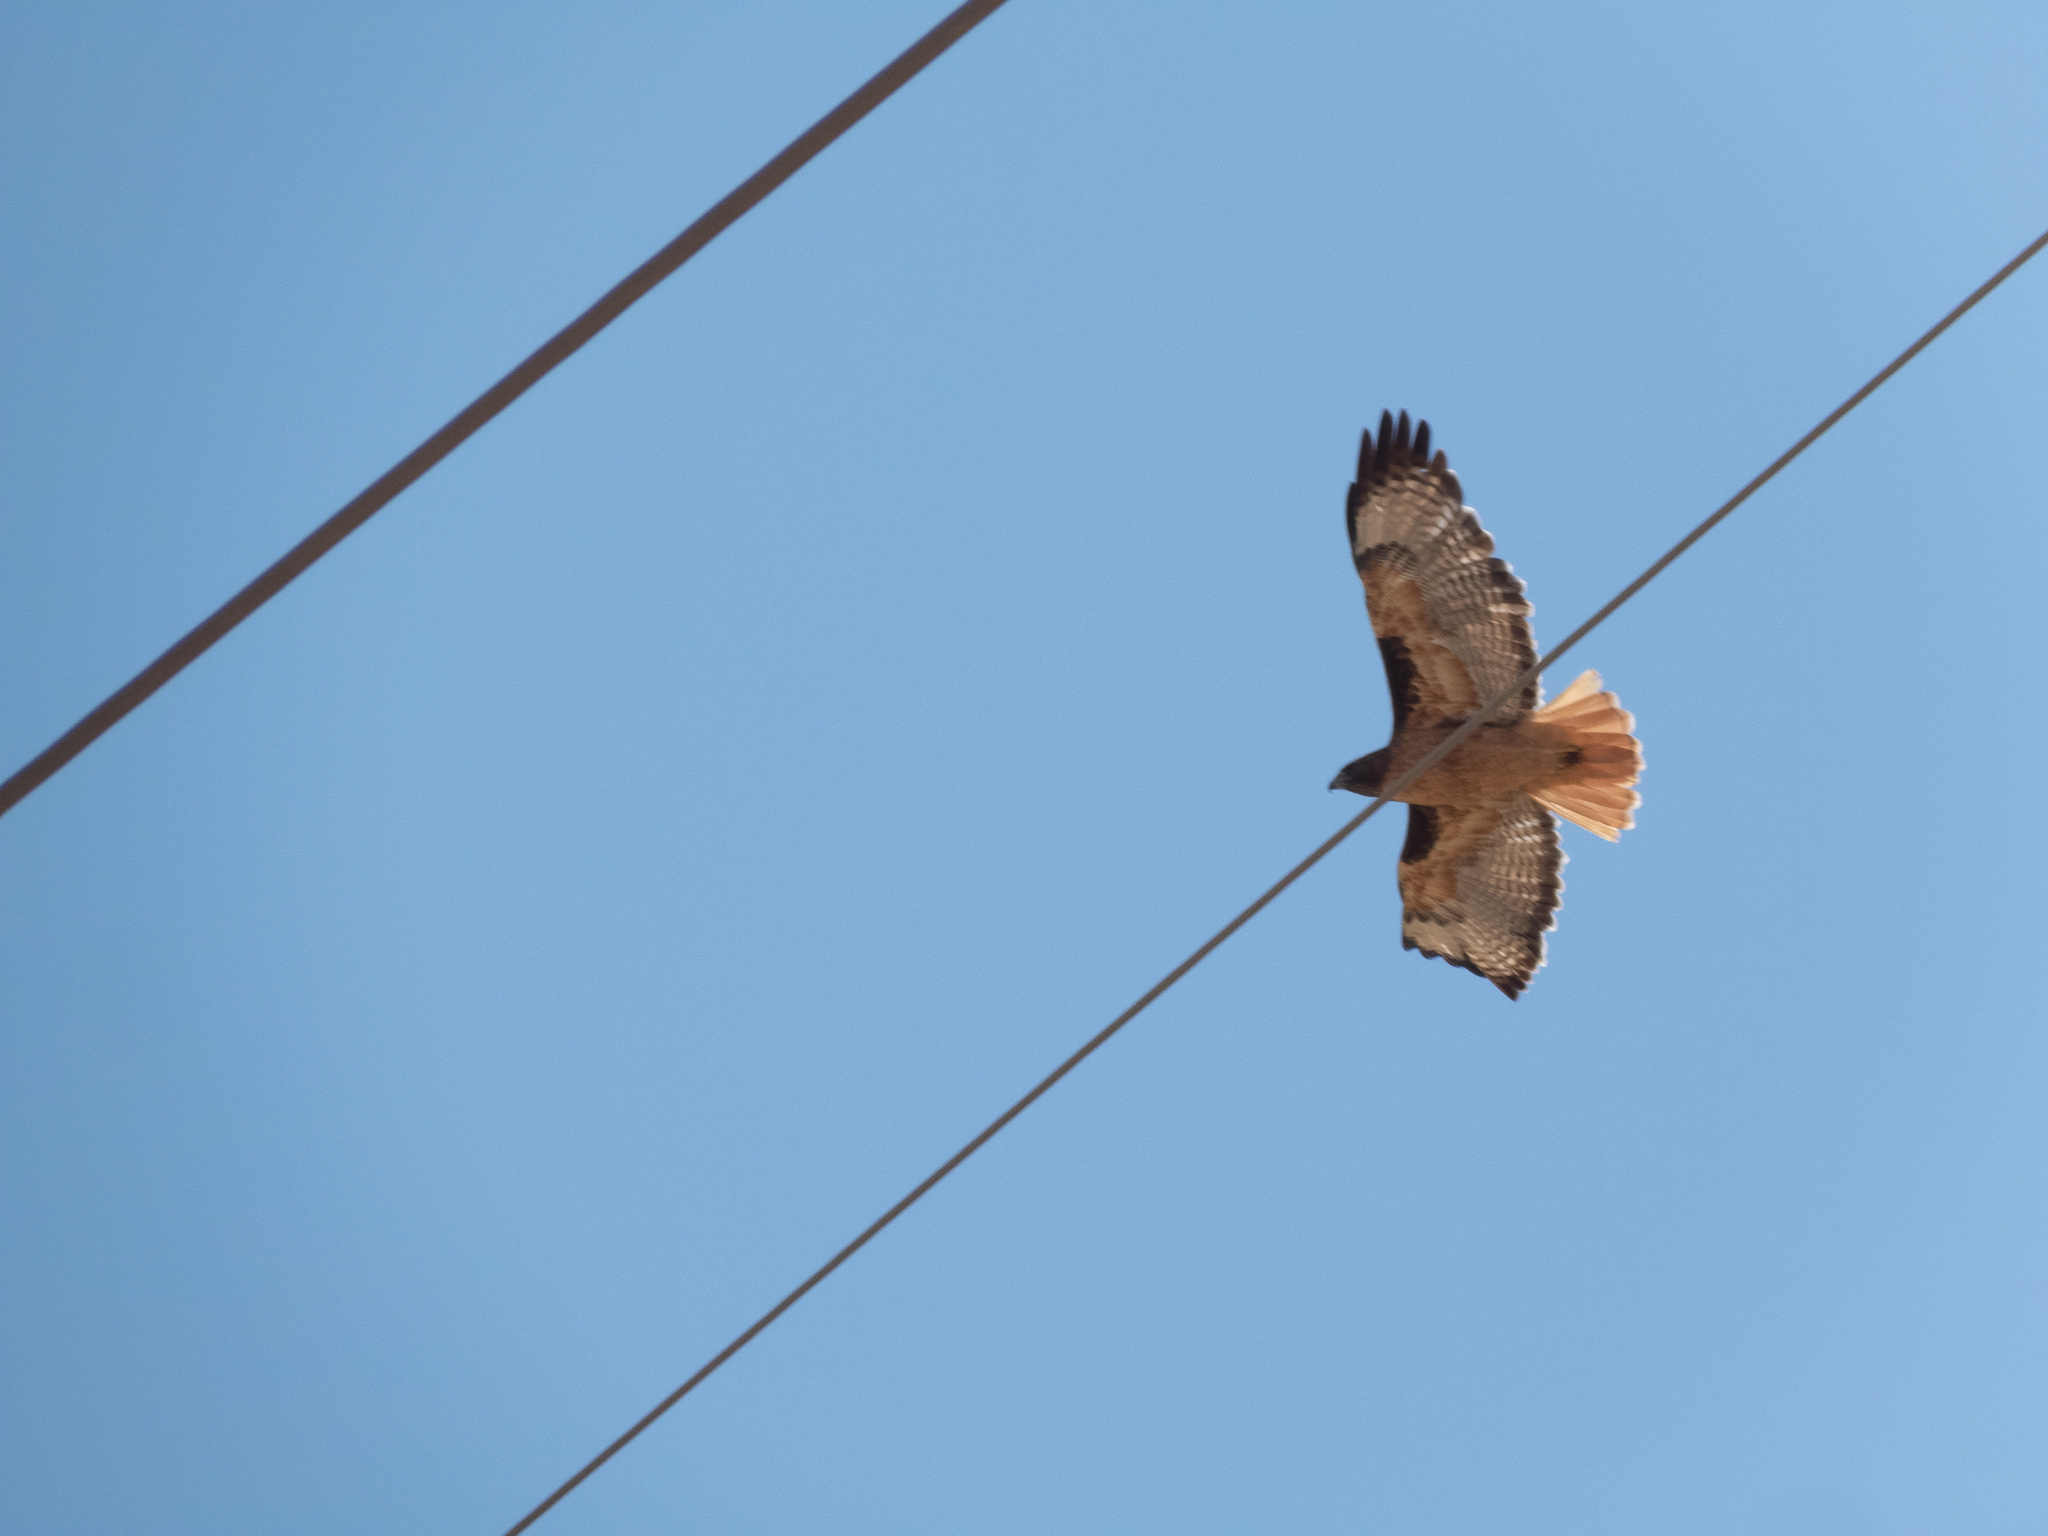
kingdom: Animalia
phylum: Chordata
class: Aves
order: Accipitriformes
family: Accipitridae
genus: Buteo
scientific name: Buteo jamaicensis
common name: Red-tailed hawk
